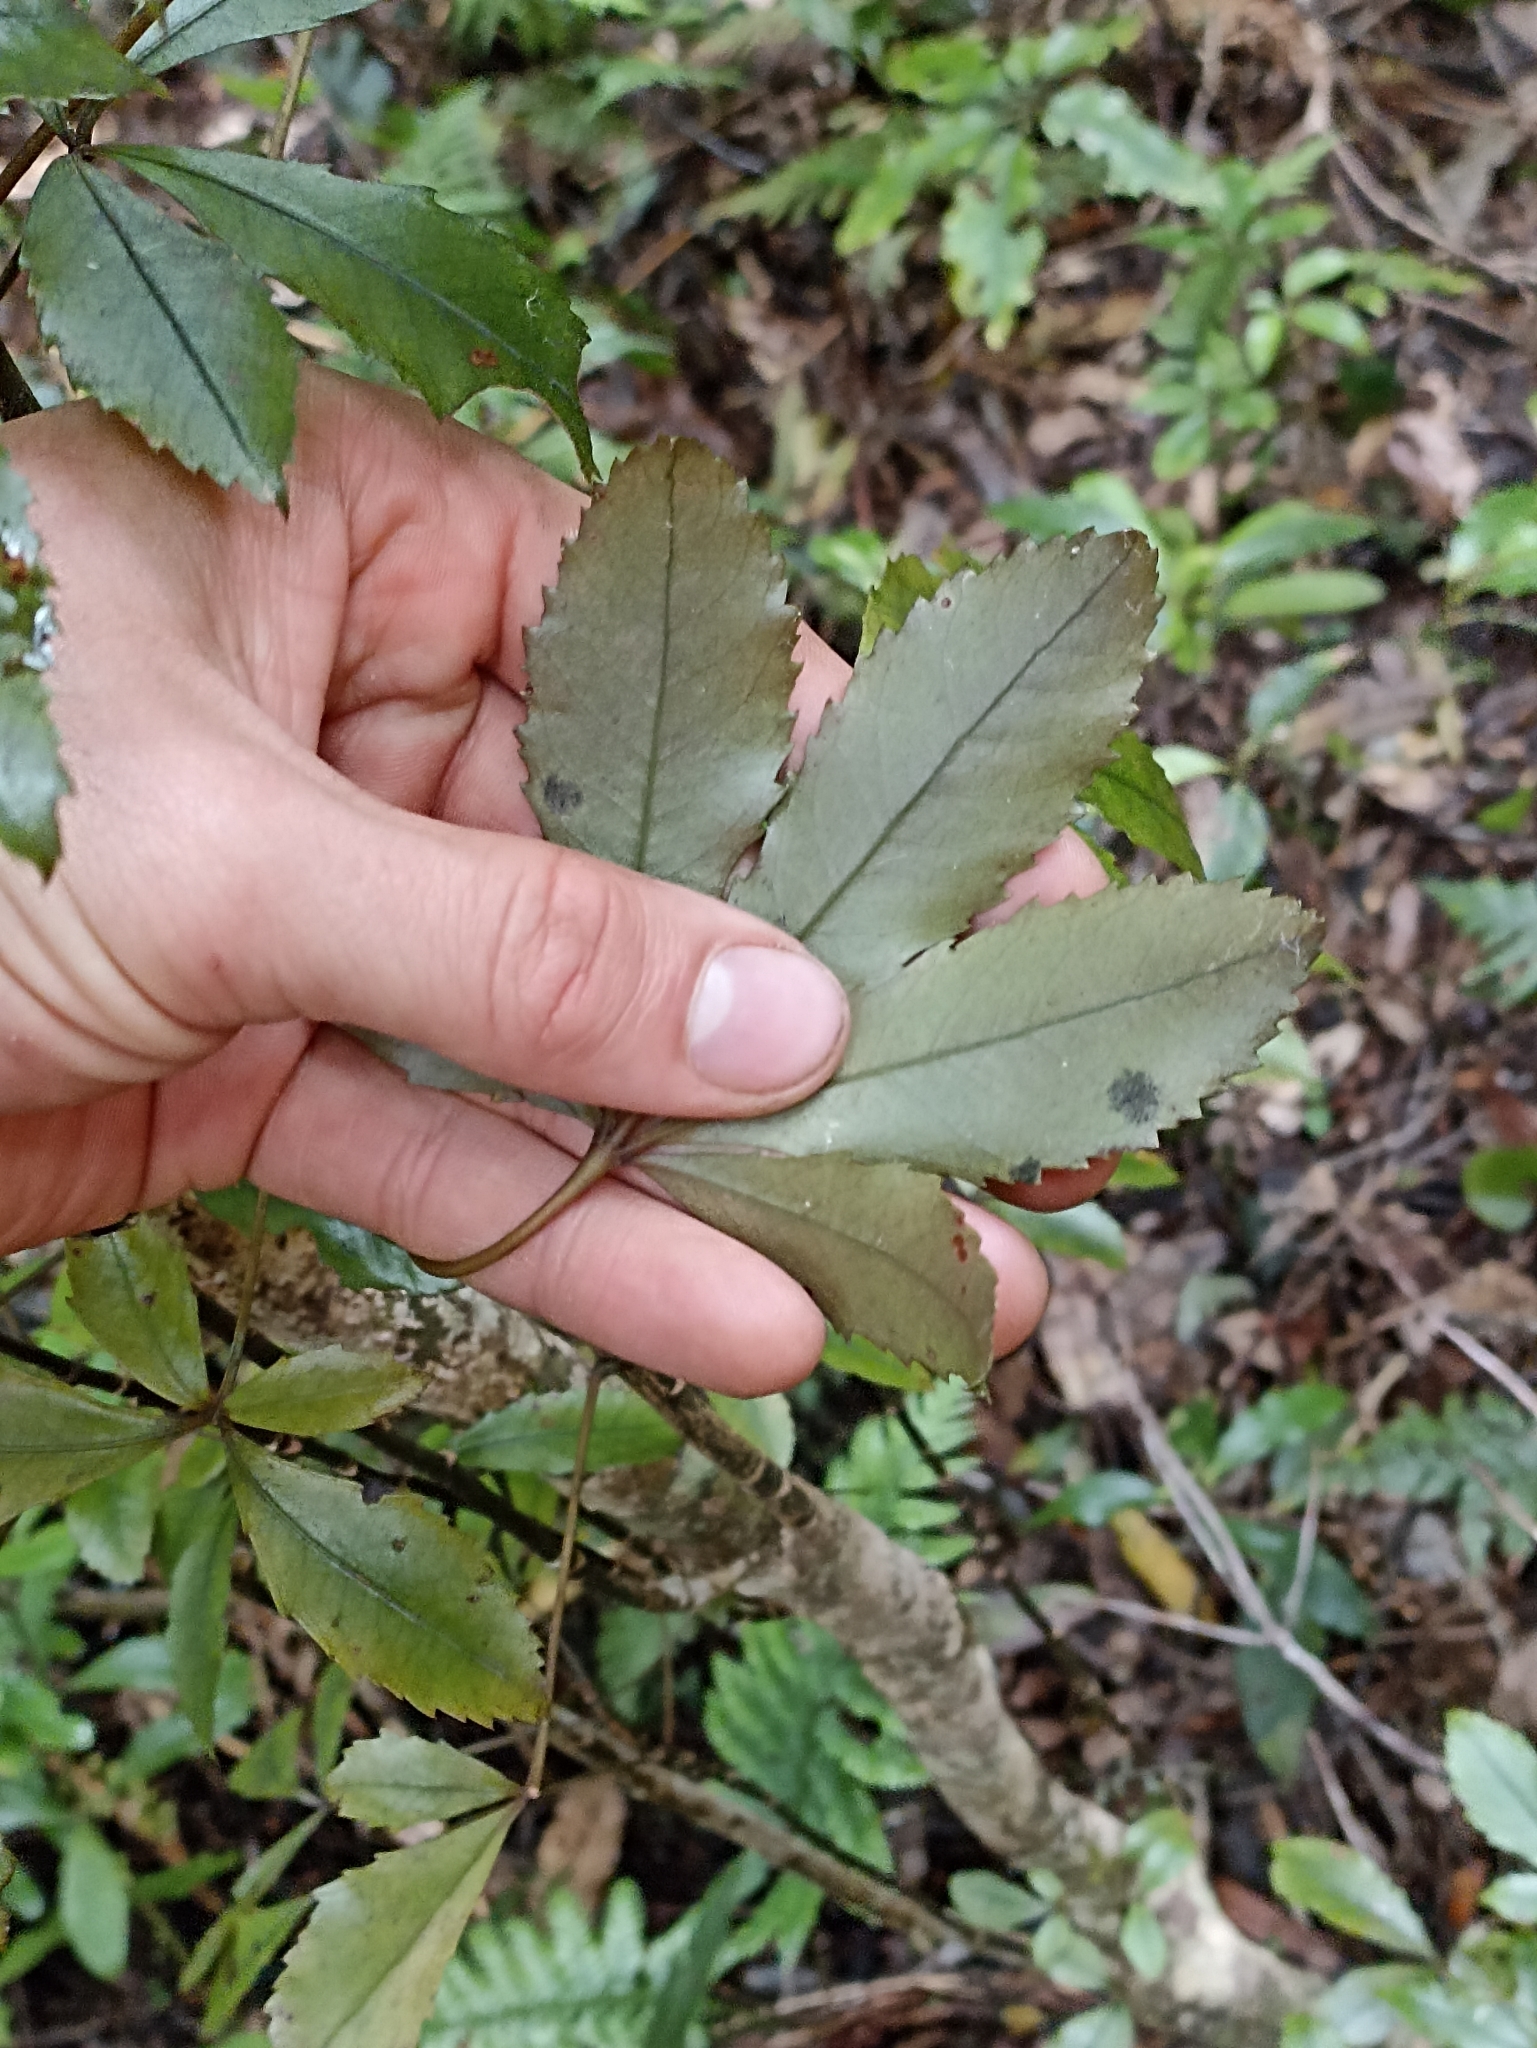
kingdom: Plantae
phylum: Tracheophyta
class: Magnoliopsida
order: Apiales
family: Araliaceae
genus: Pseudopanax
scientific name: Pseudopanax discolor
